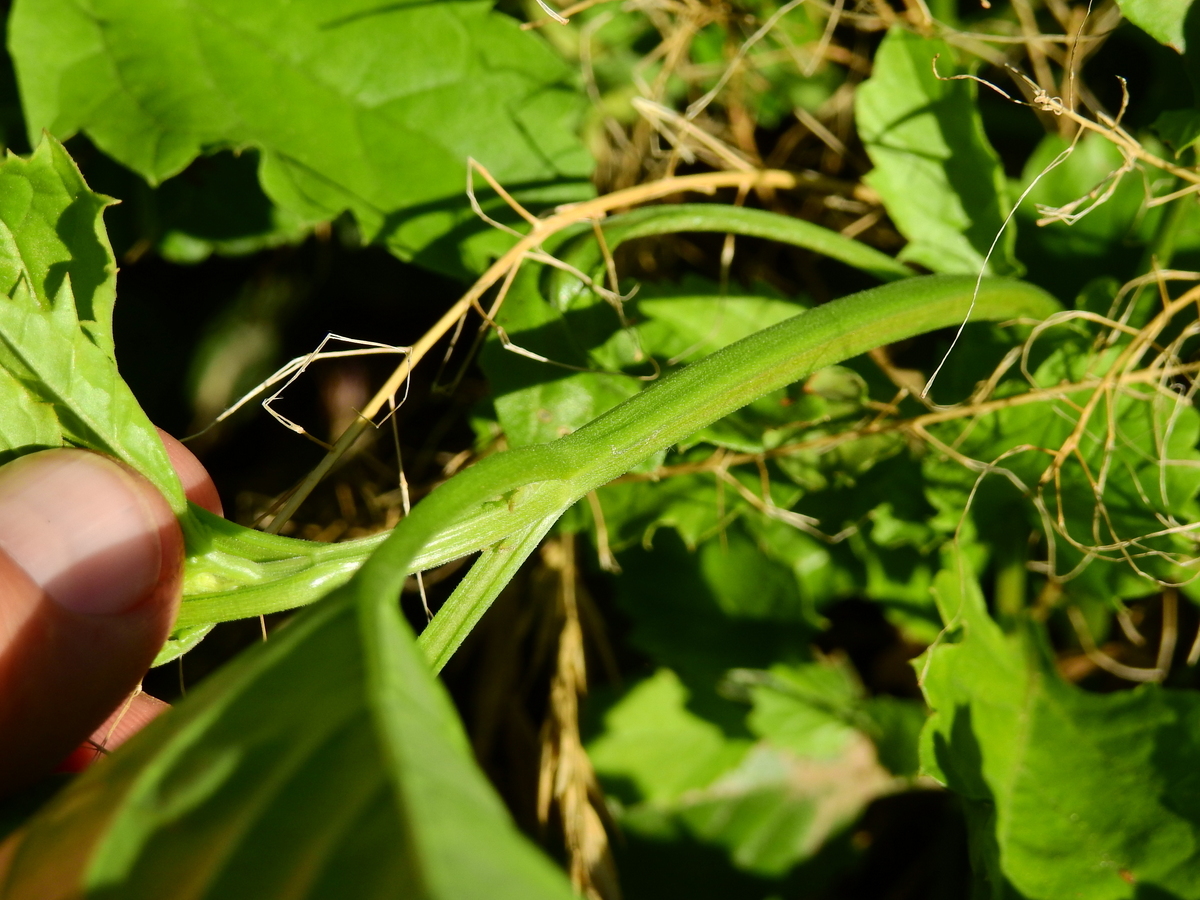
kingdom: Plantae
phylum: Tracheophyta
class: Magnoliopsida
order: Lamiales
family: Verbenaceae
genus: Pitraea
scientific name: Pitraea cuneato-ovata
